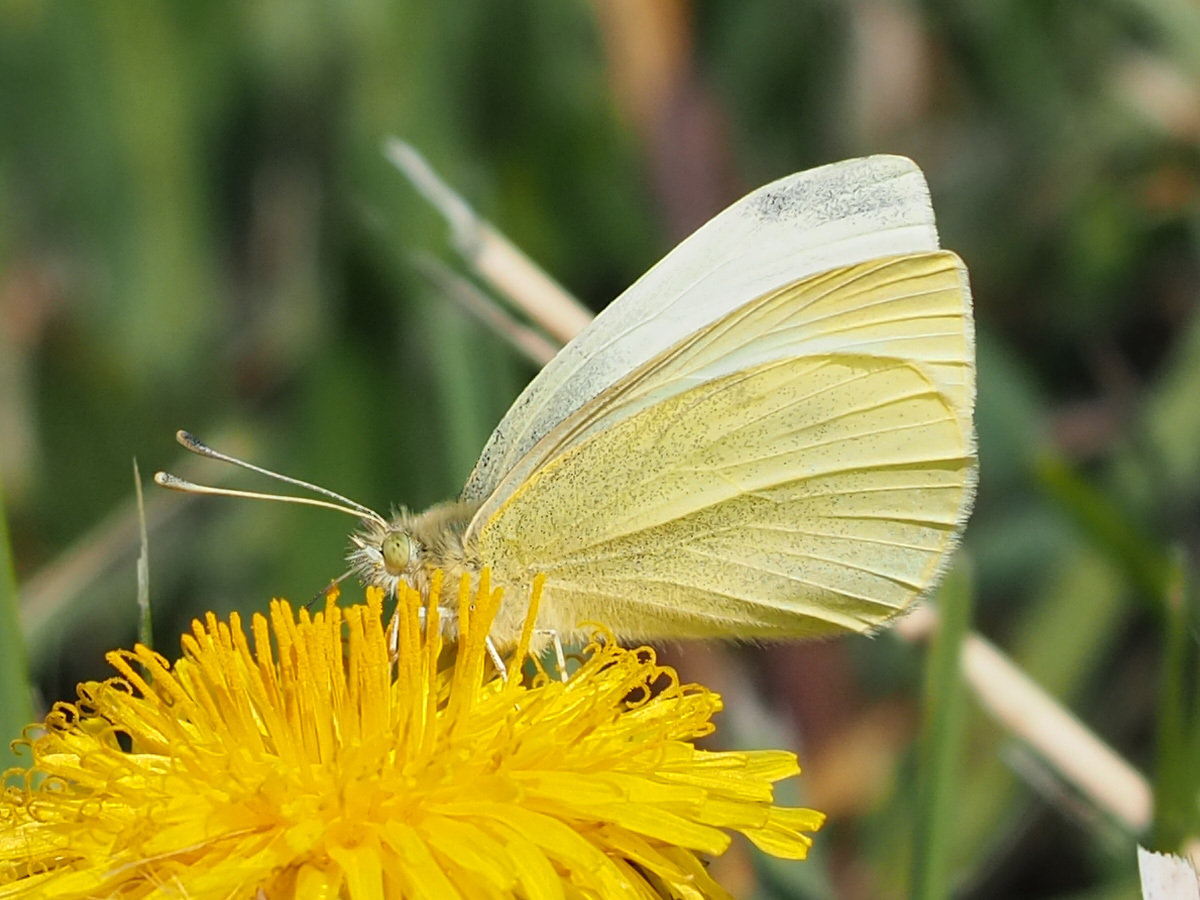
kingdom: Animalia
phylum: Arthropoda
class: Insecta
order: Lepidoptera
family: Pieridae
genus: Pieris
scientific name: Pieris rapae
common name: Small white
